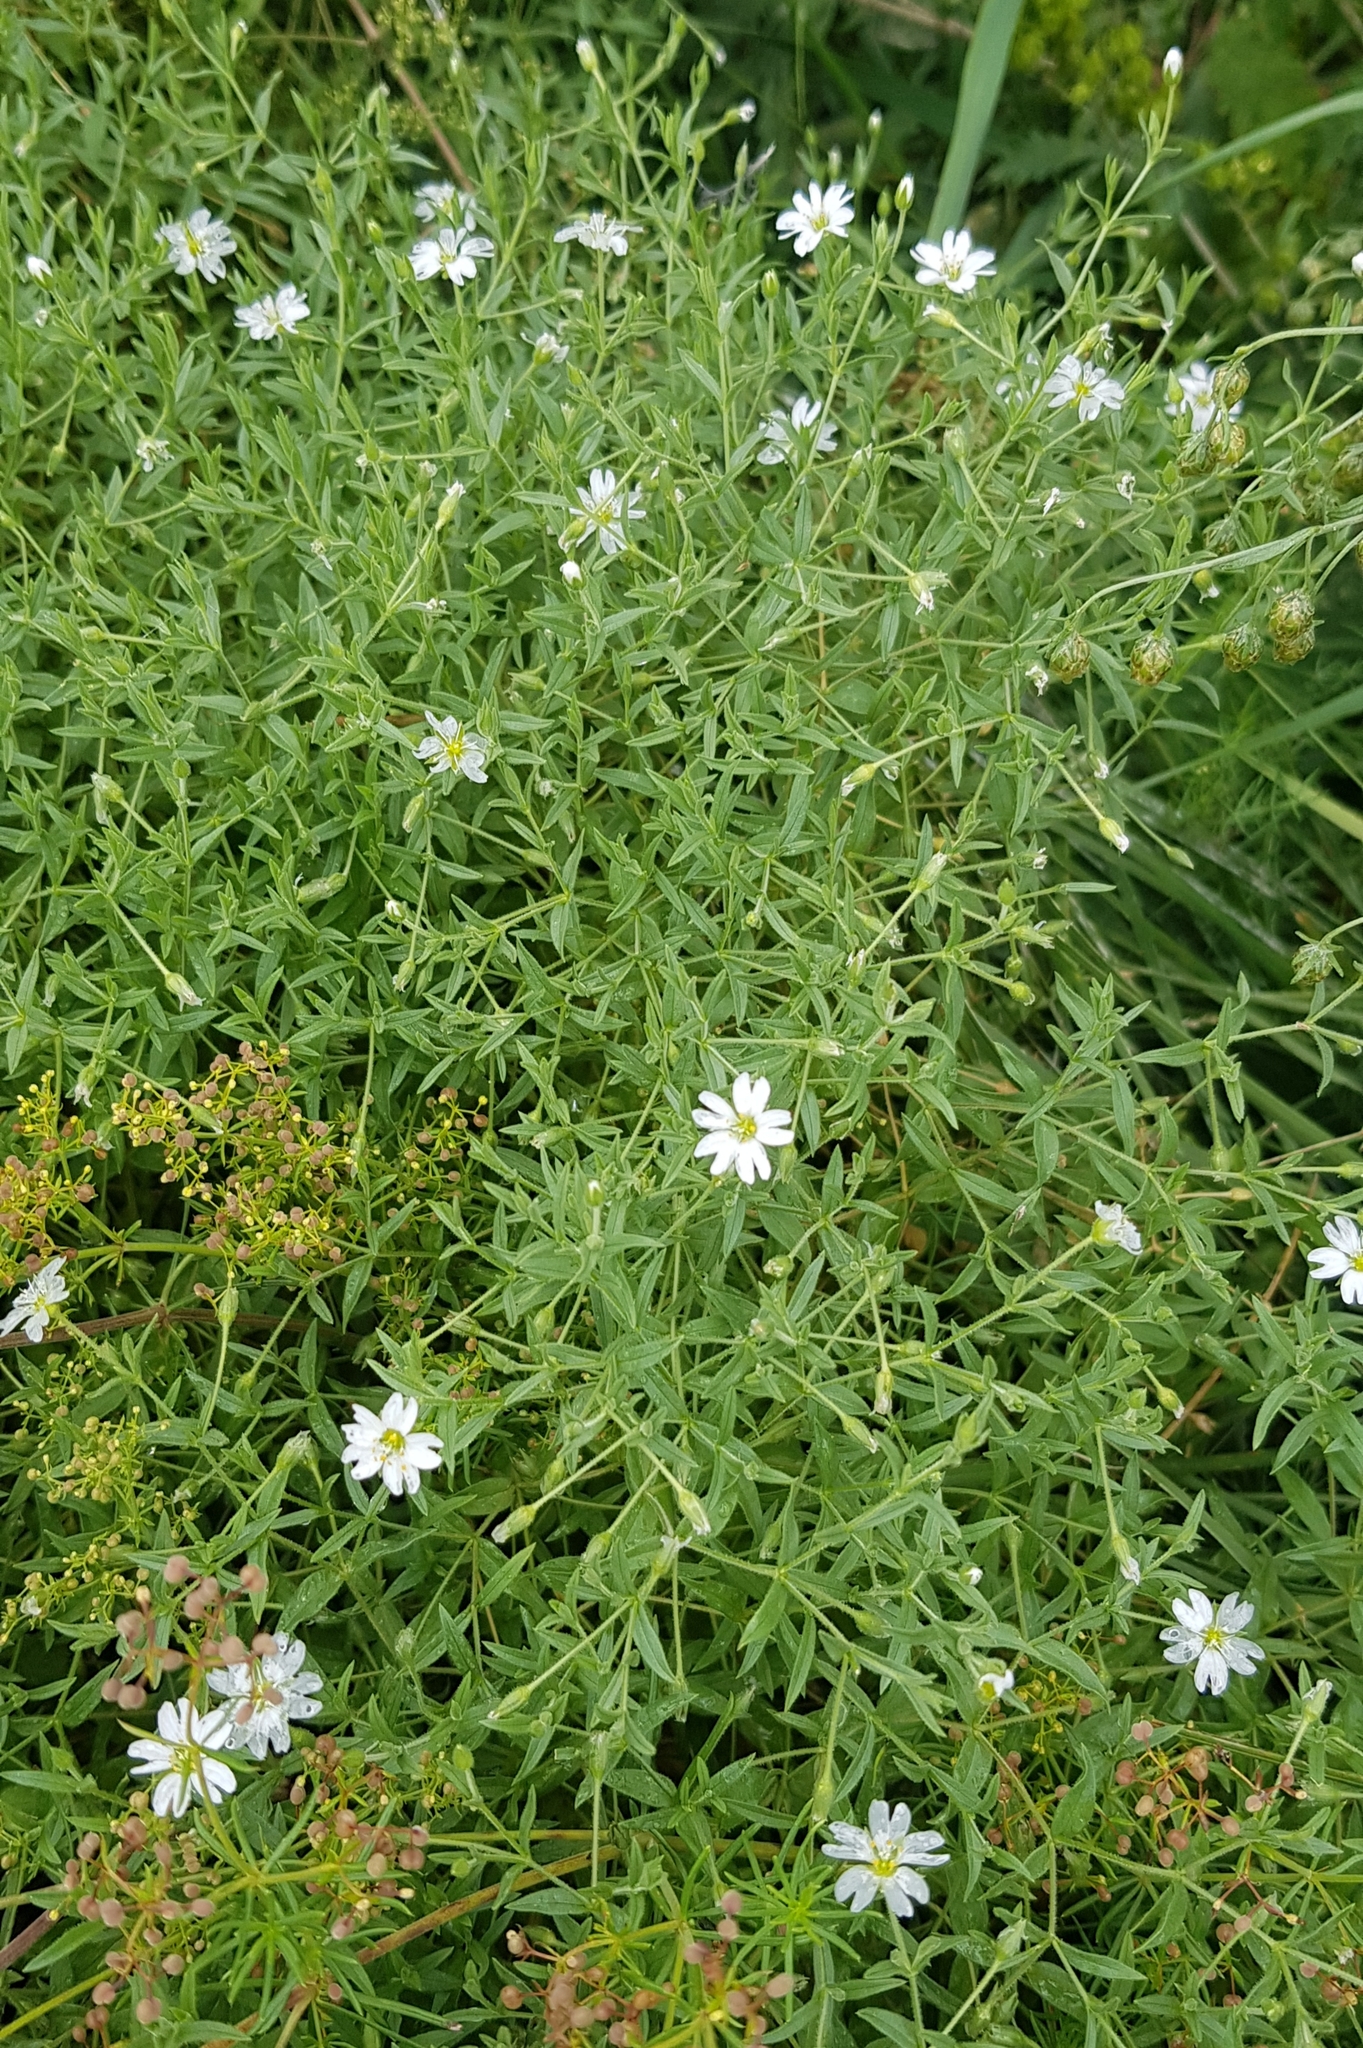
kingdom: Plantae
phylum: Tracheophyta
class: Magnoliopsida
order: Caryophyllales
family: Caryophyllaceae
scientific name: Caryophyllaceae
